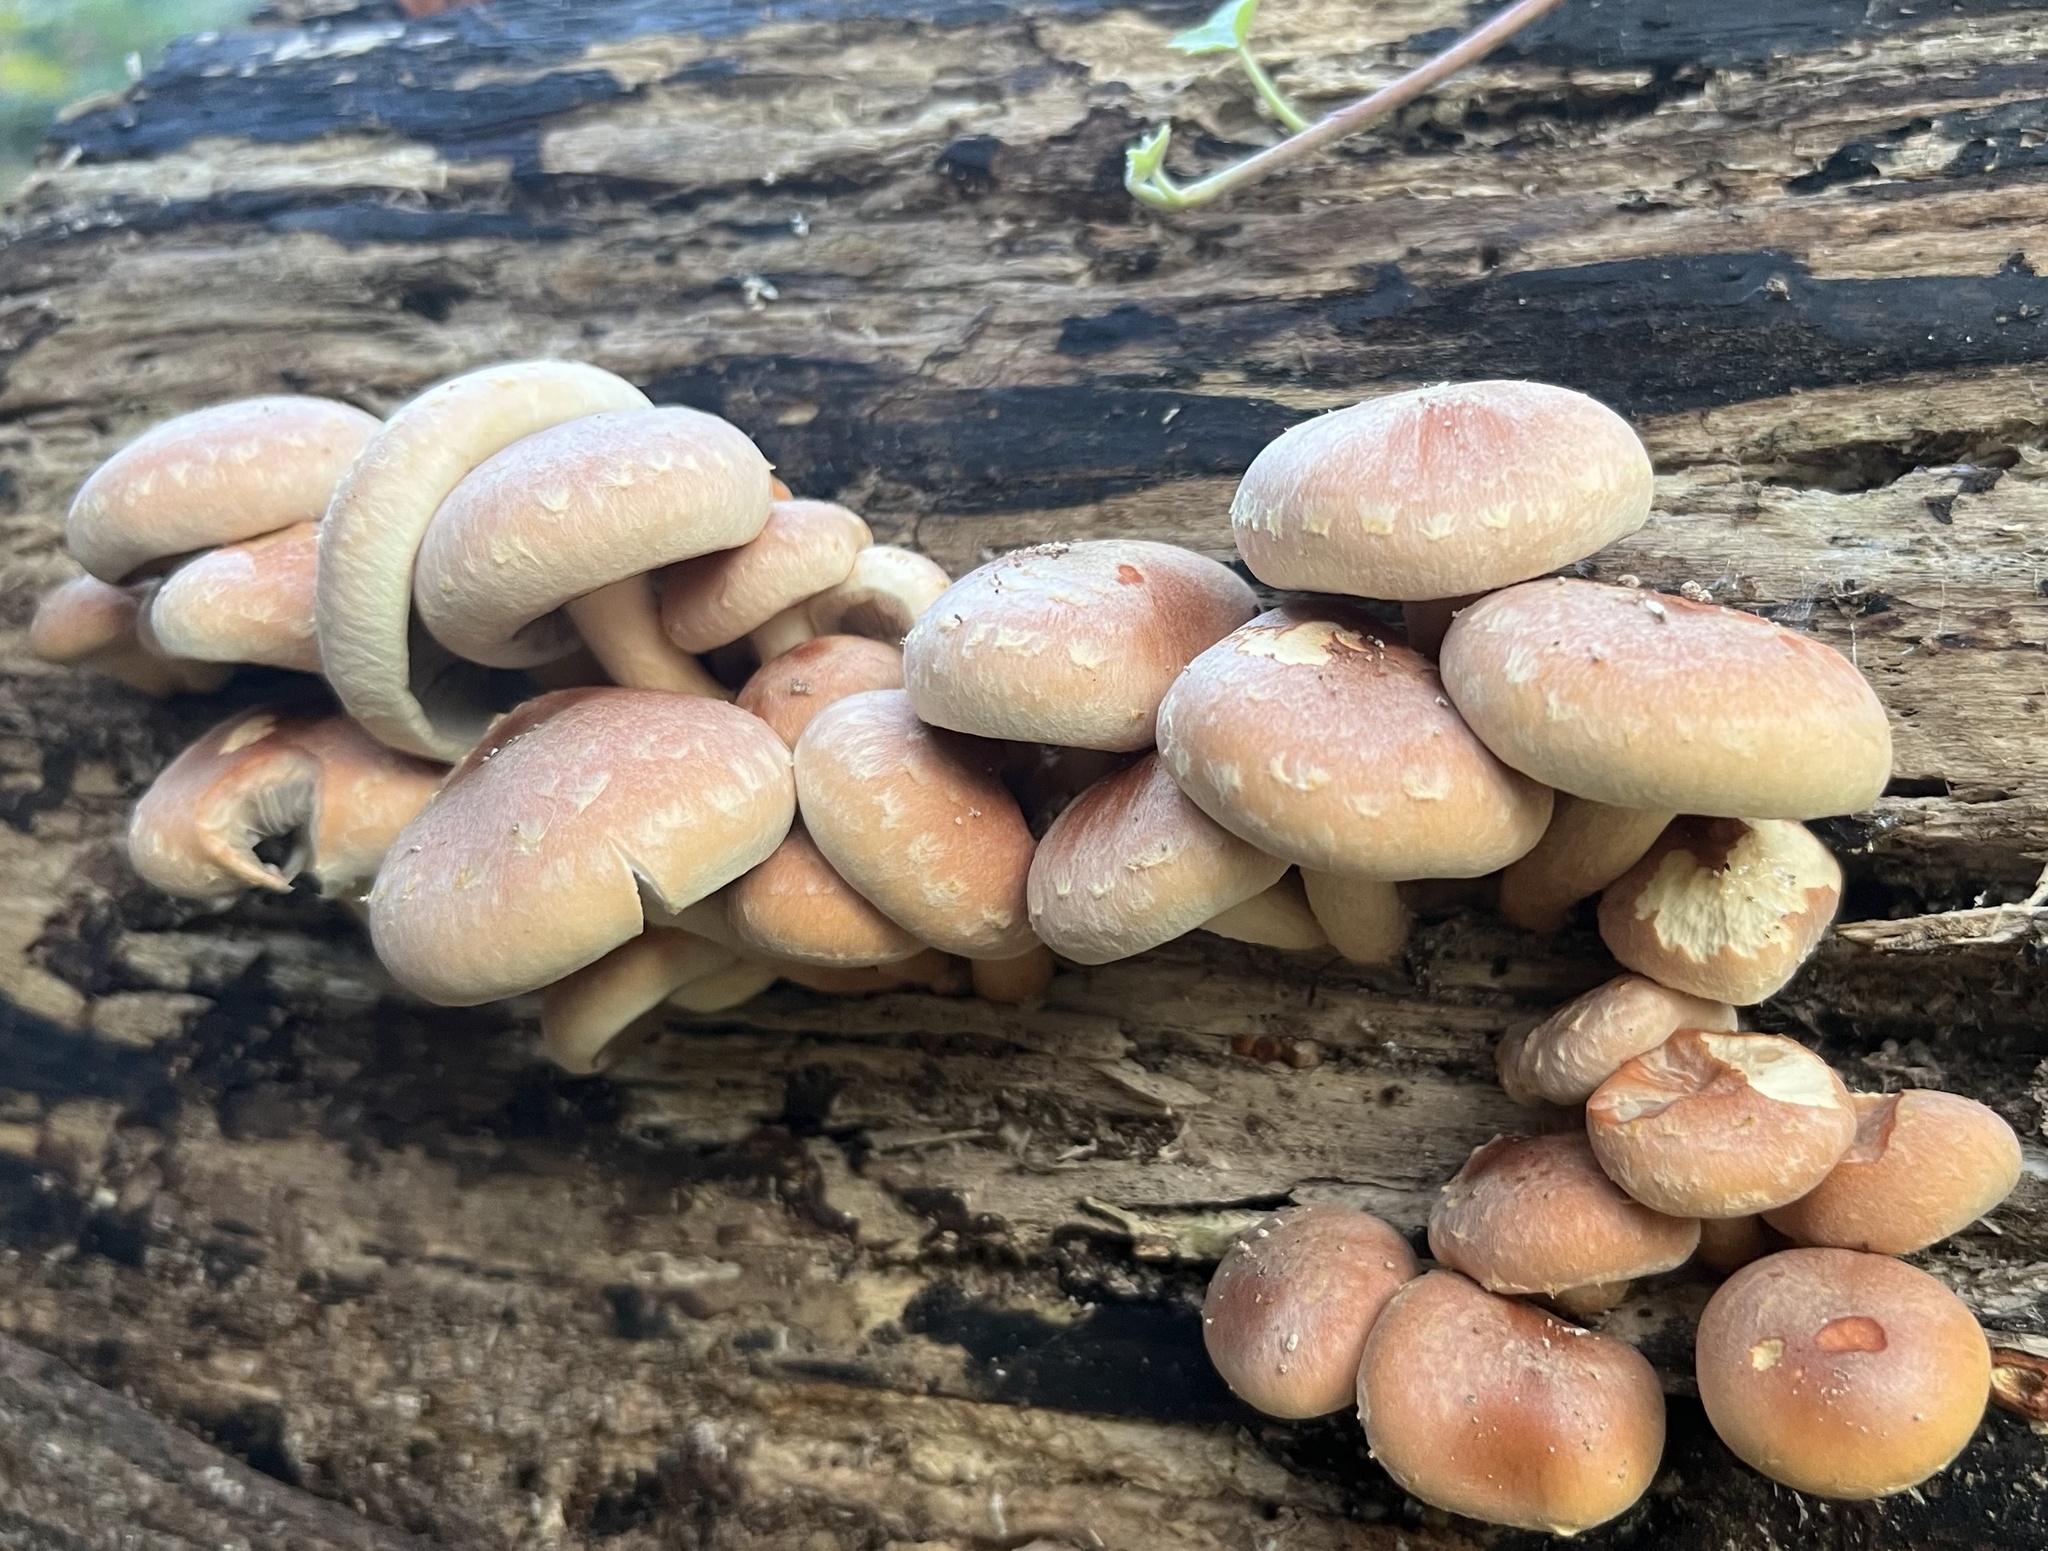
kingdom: Fungi
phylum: Basidiomycota
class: Agaricomycetes
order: Agaricales
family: Strophariaceae
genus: Hypholoma
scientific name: Hypholoma lateritium
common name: Brick caps
